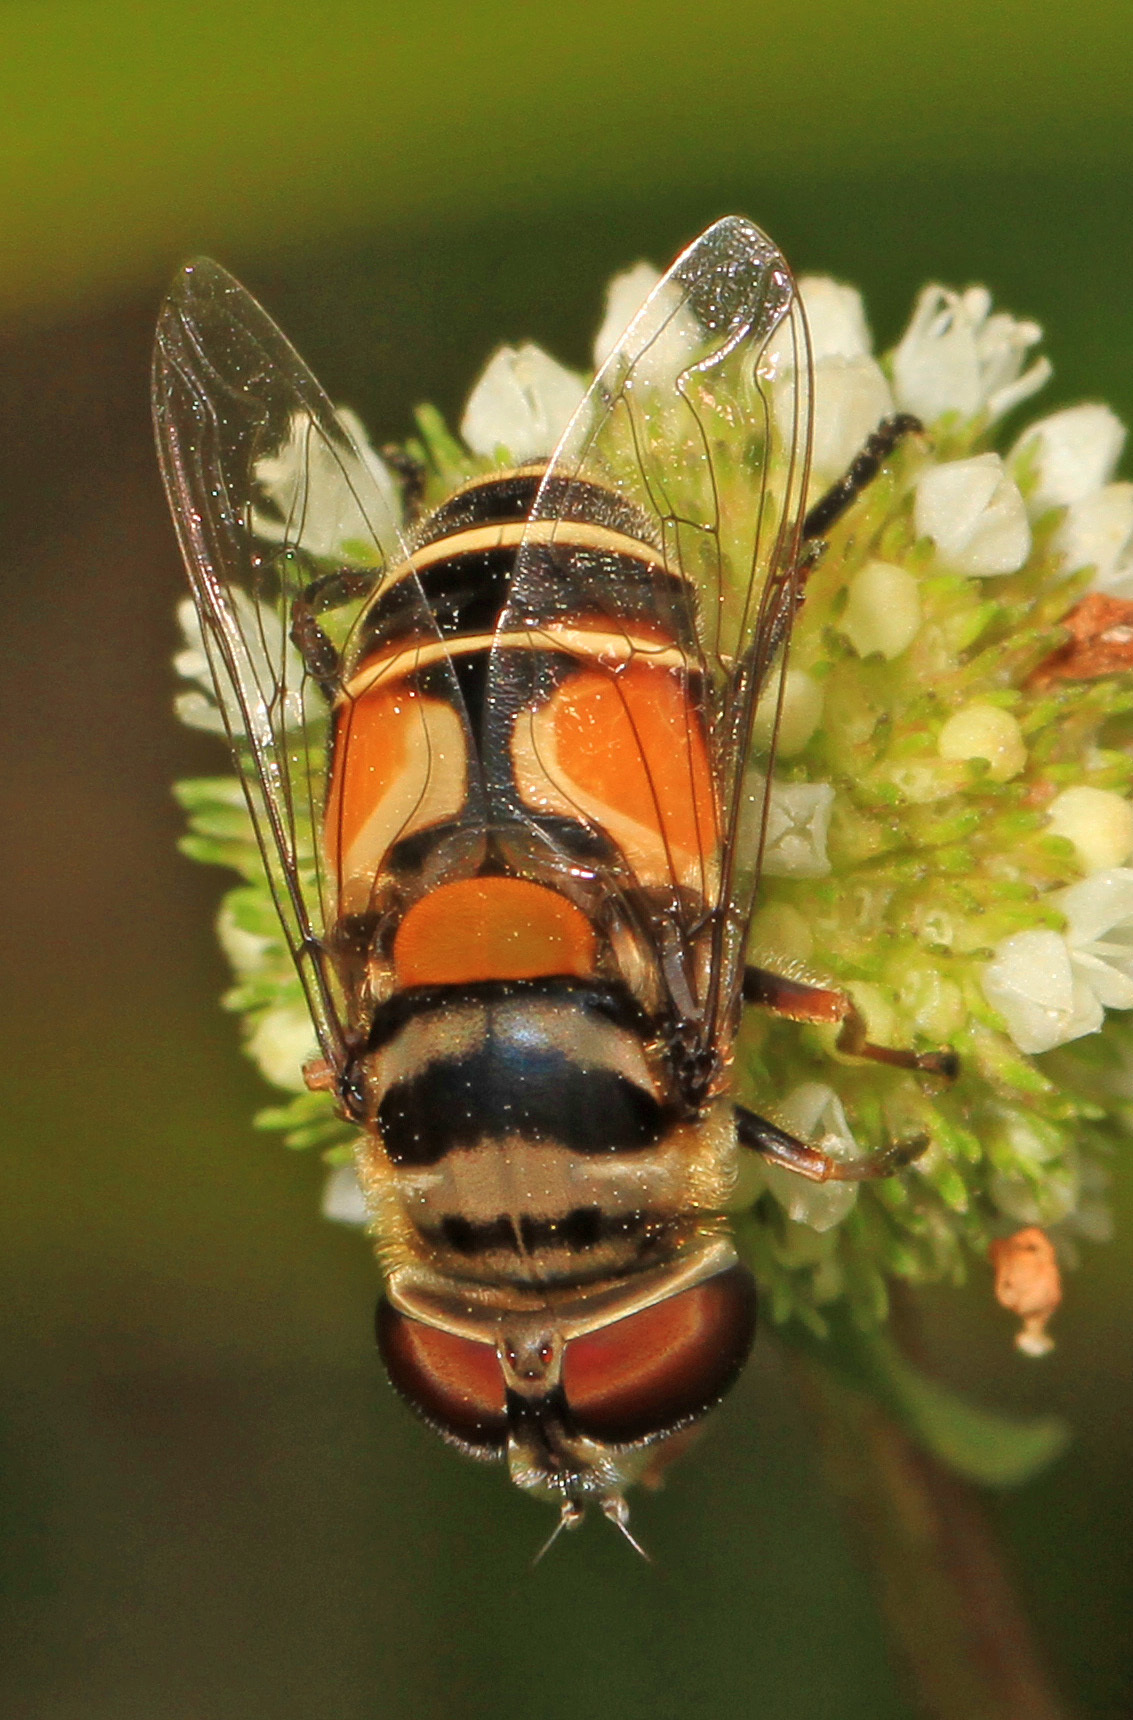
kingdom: Animalia
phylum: Arthropoda
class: Insecta
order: Diptera
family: Syrphidae
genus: Palpada
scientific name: Palpada albifrons
